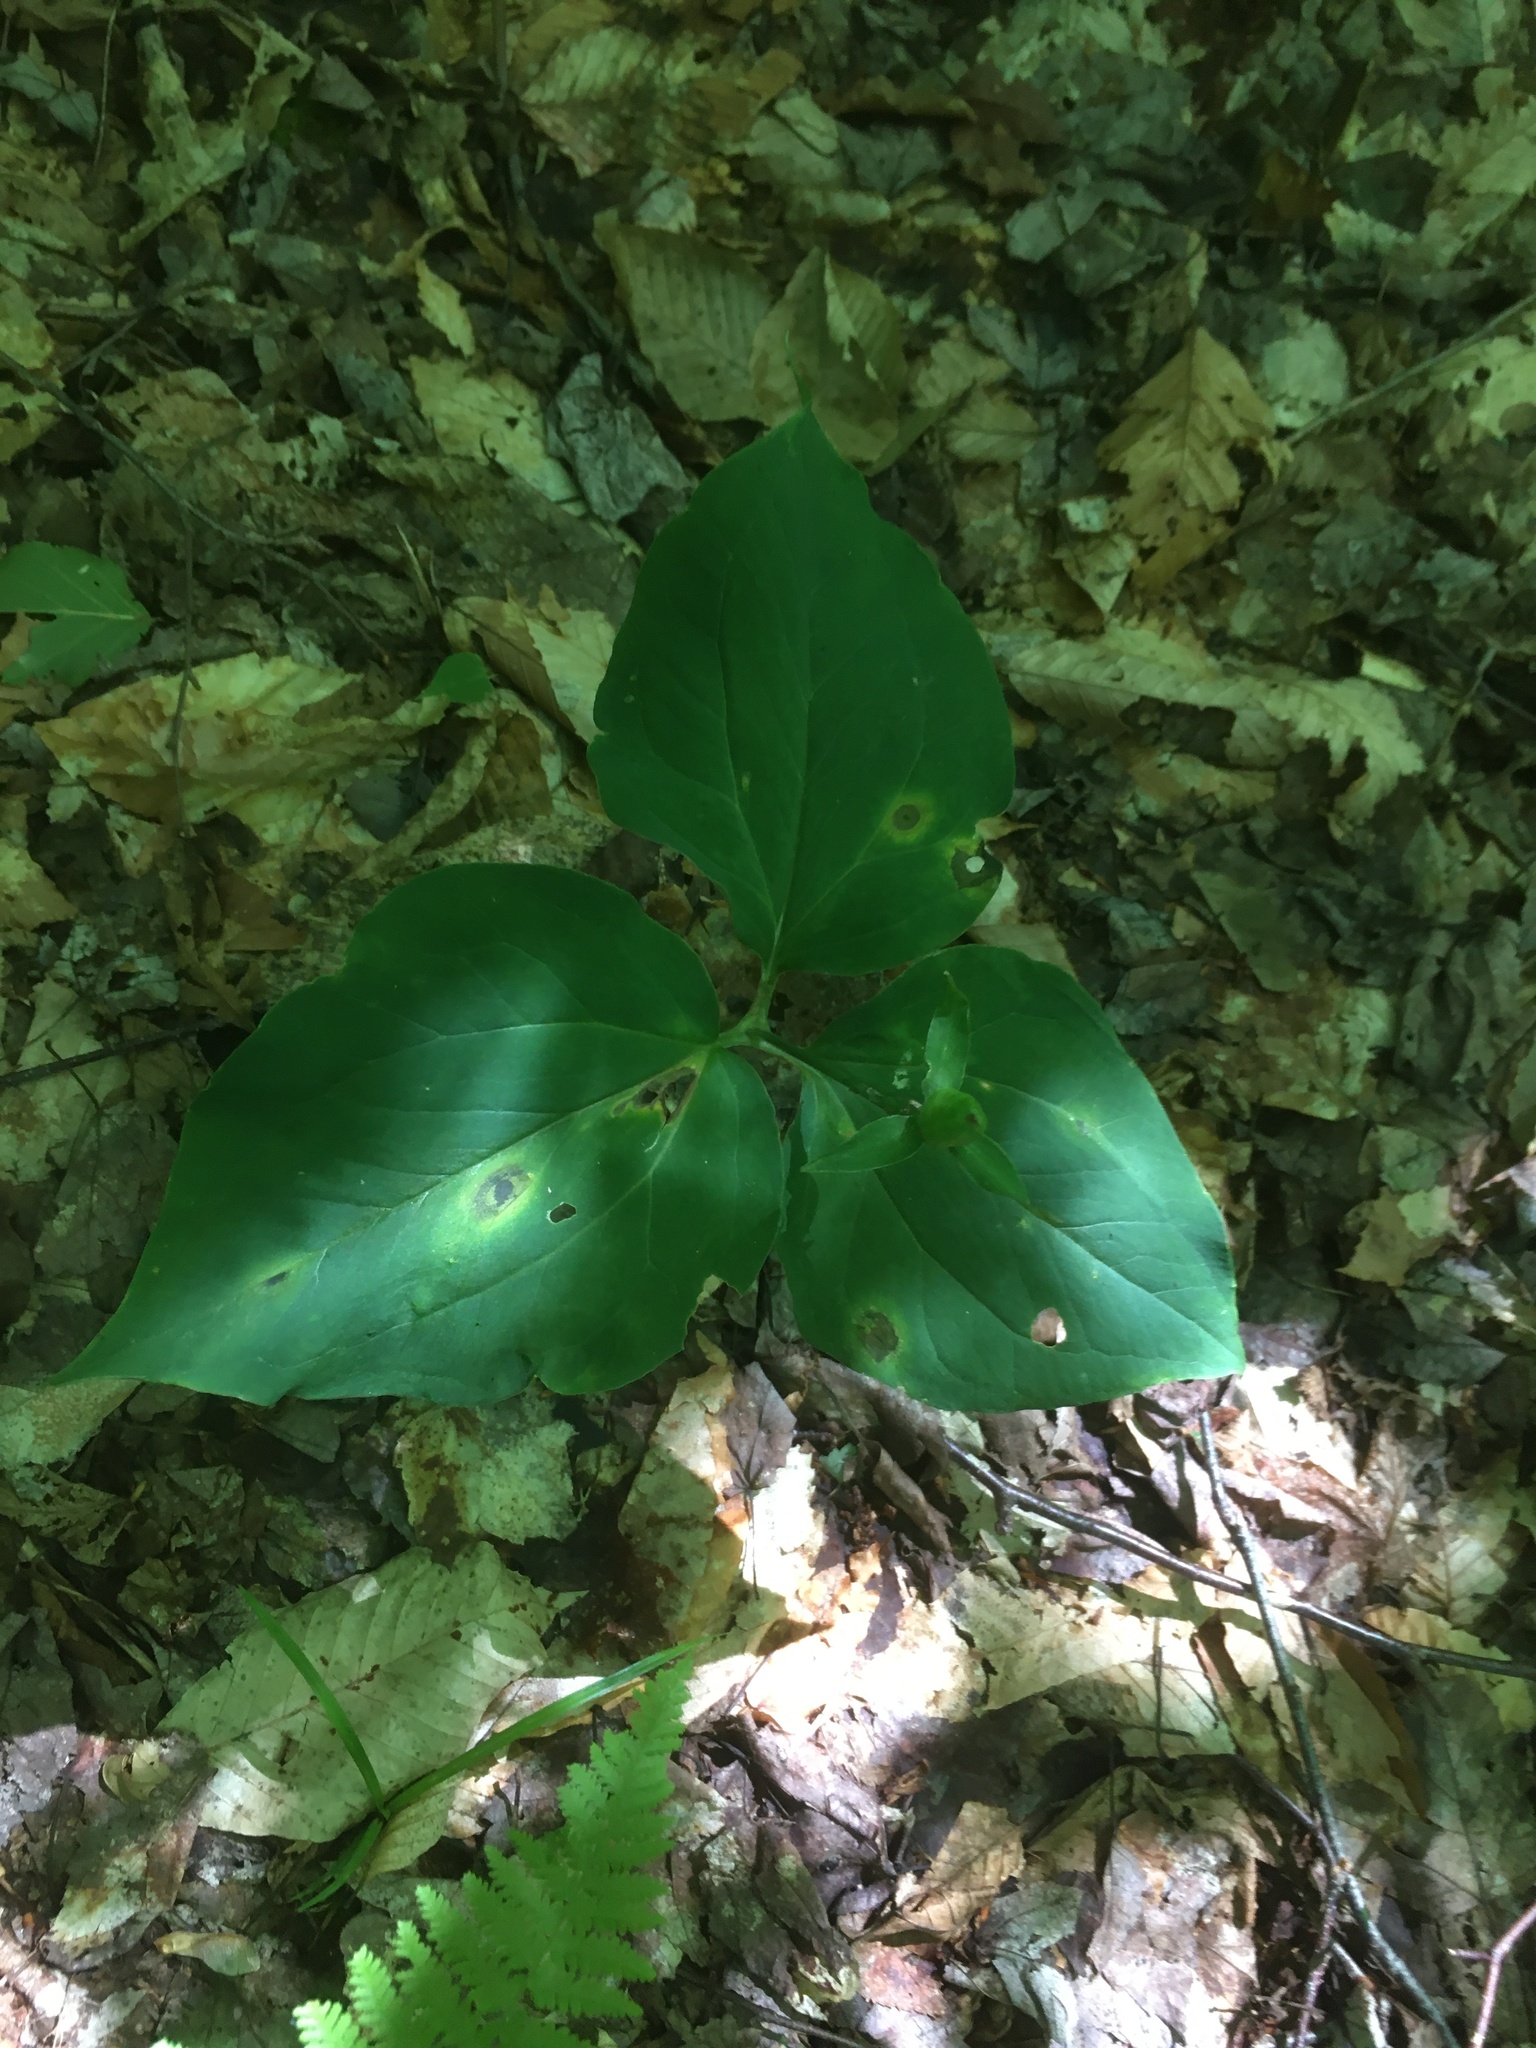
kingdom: Plantae
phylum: Tracheophyta
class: Liliopsida
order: Liliales
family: Melanthiaceae
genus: Trillium
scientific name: Trillium undulatum
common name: Paint trillium
